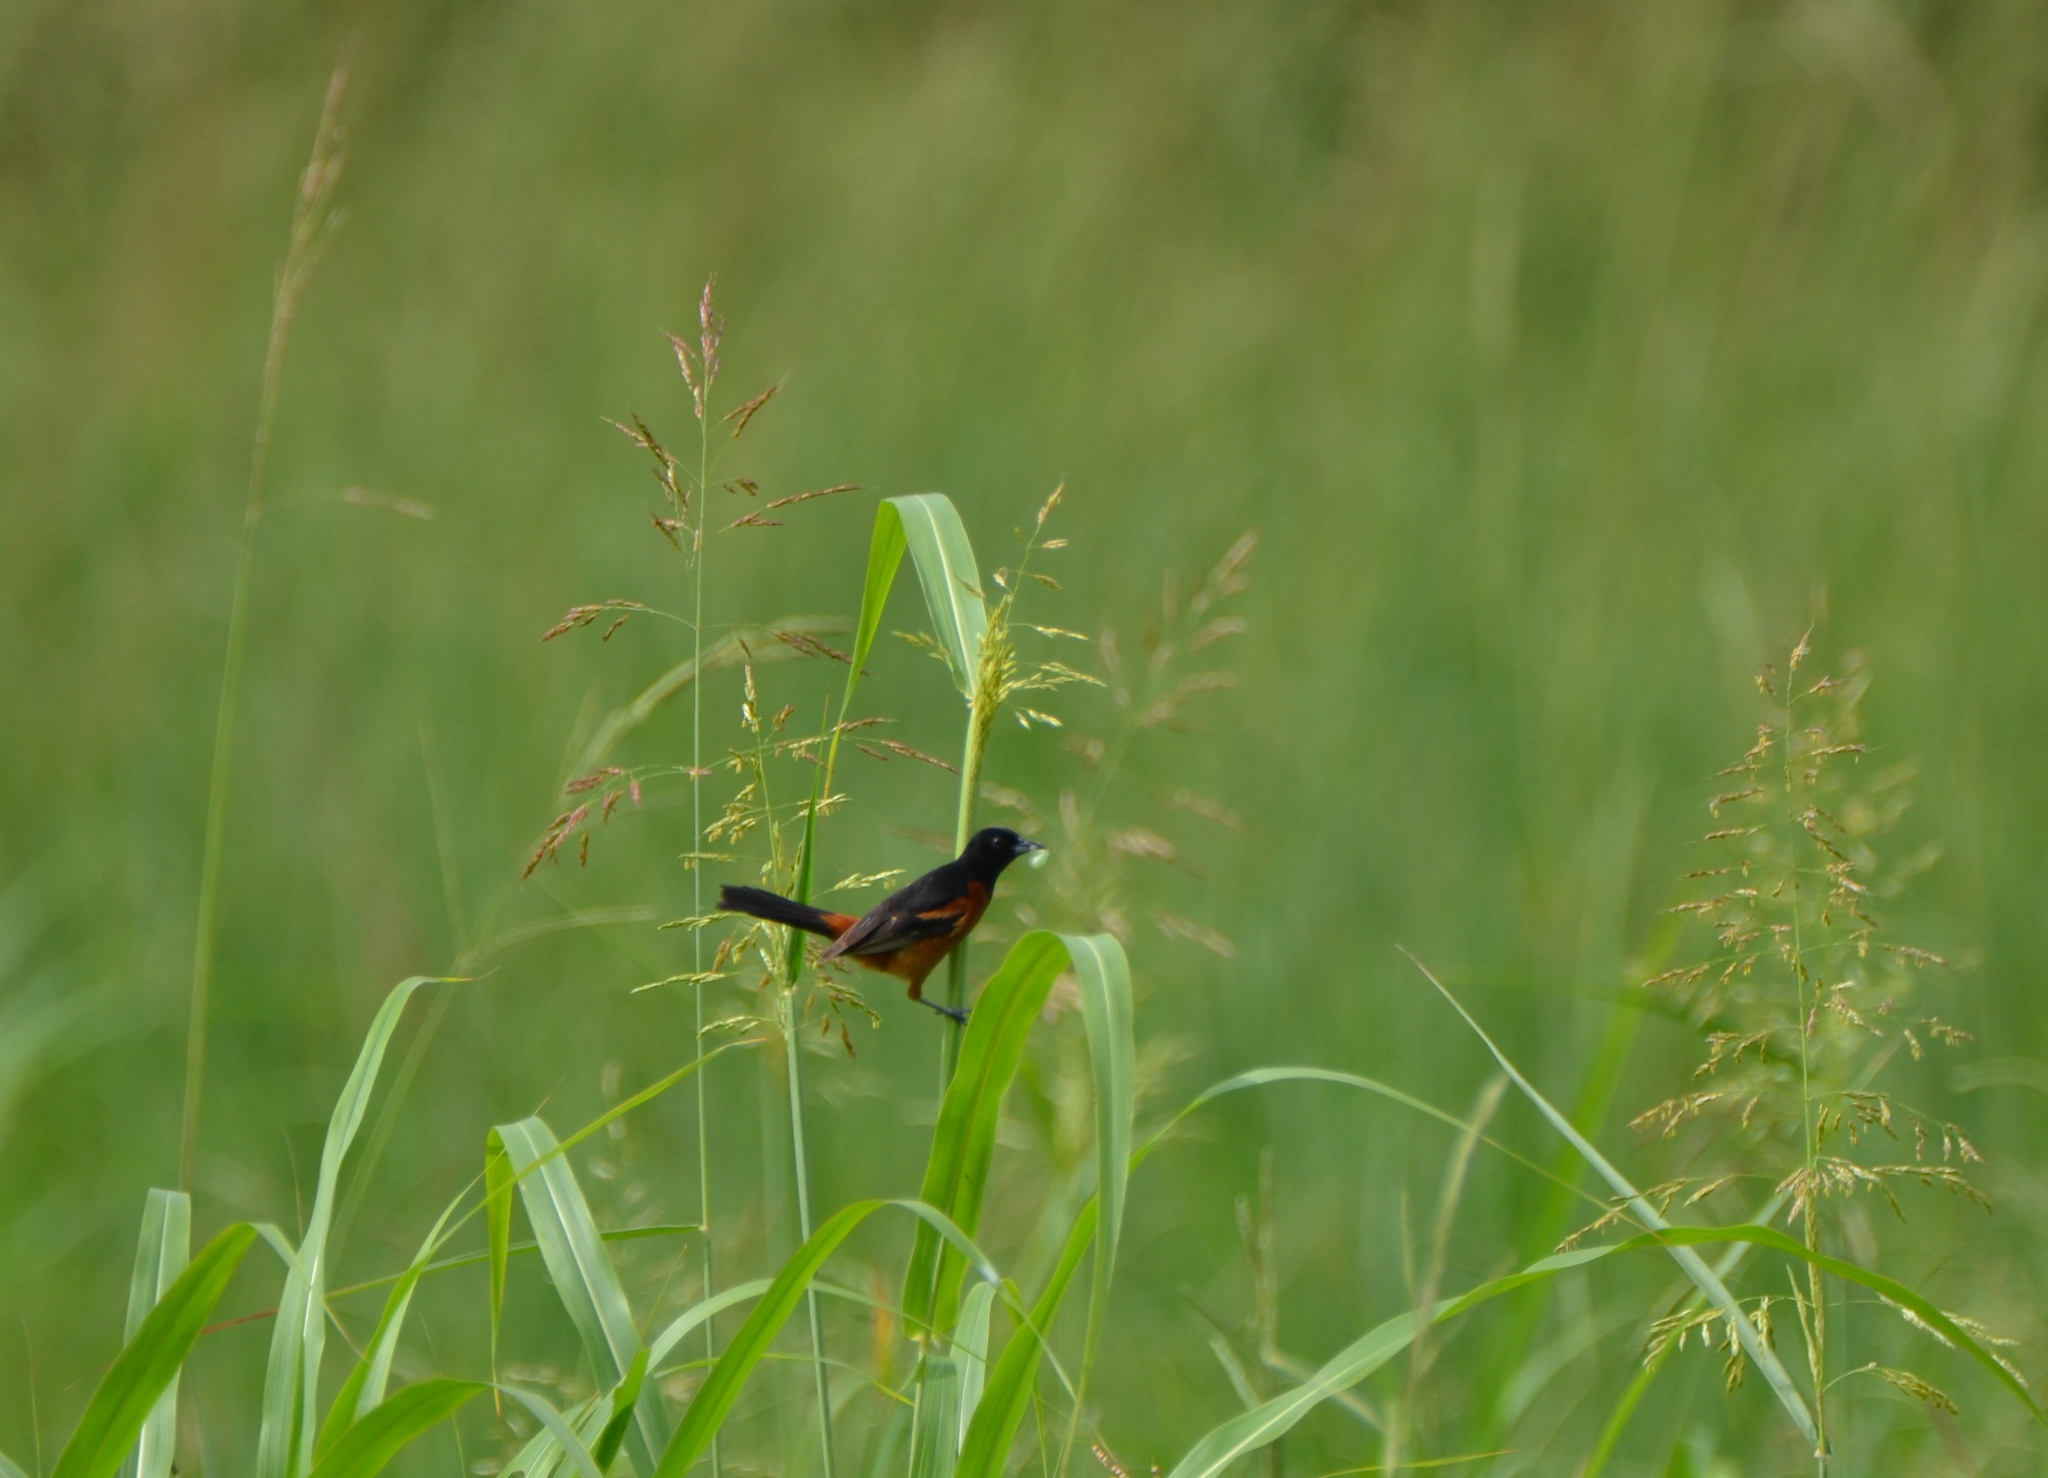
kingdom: Animalia
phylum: Chordata
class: Aves
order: Passeriformes
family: Icteridae
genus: Icterus
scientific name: Icterus spurius
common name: Orchard oriole
